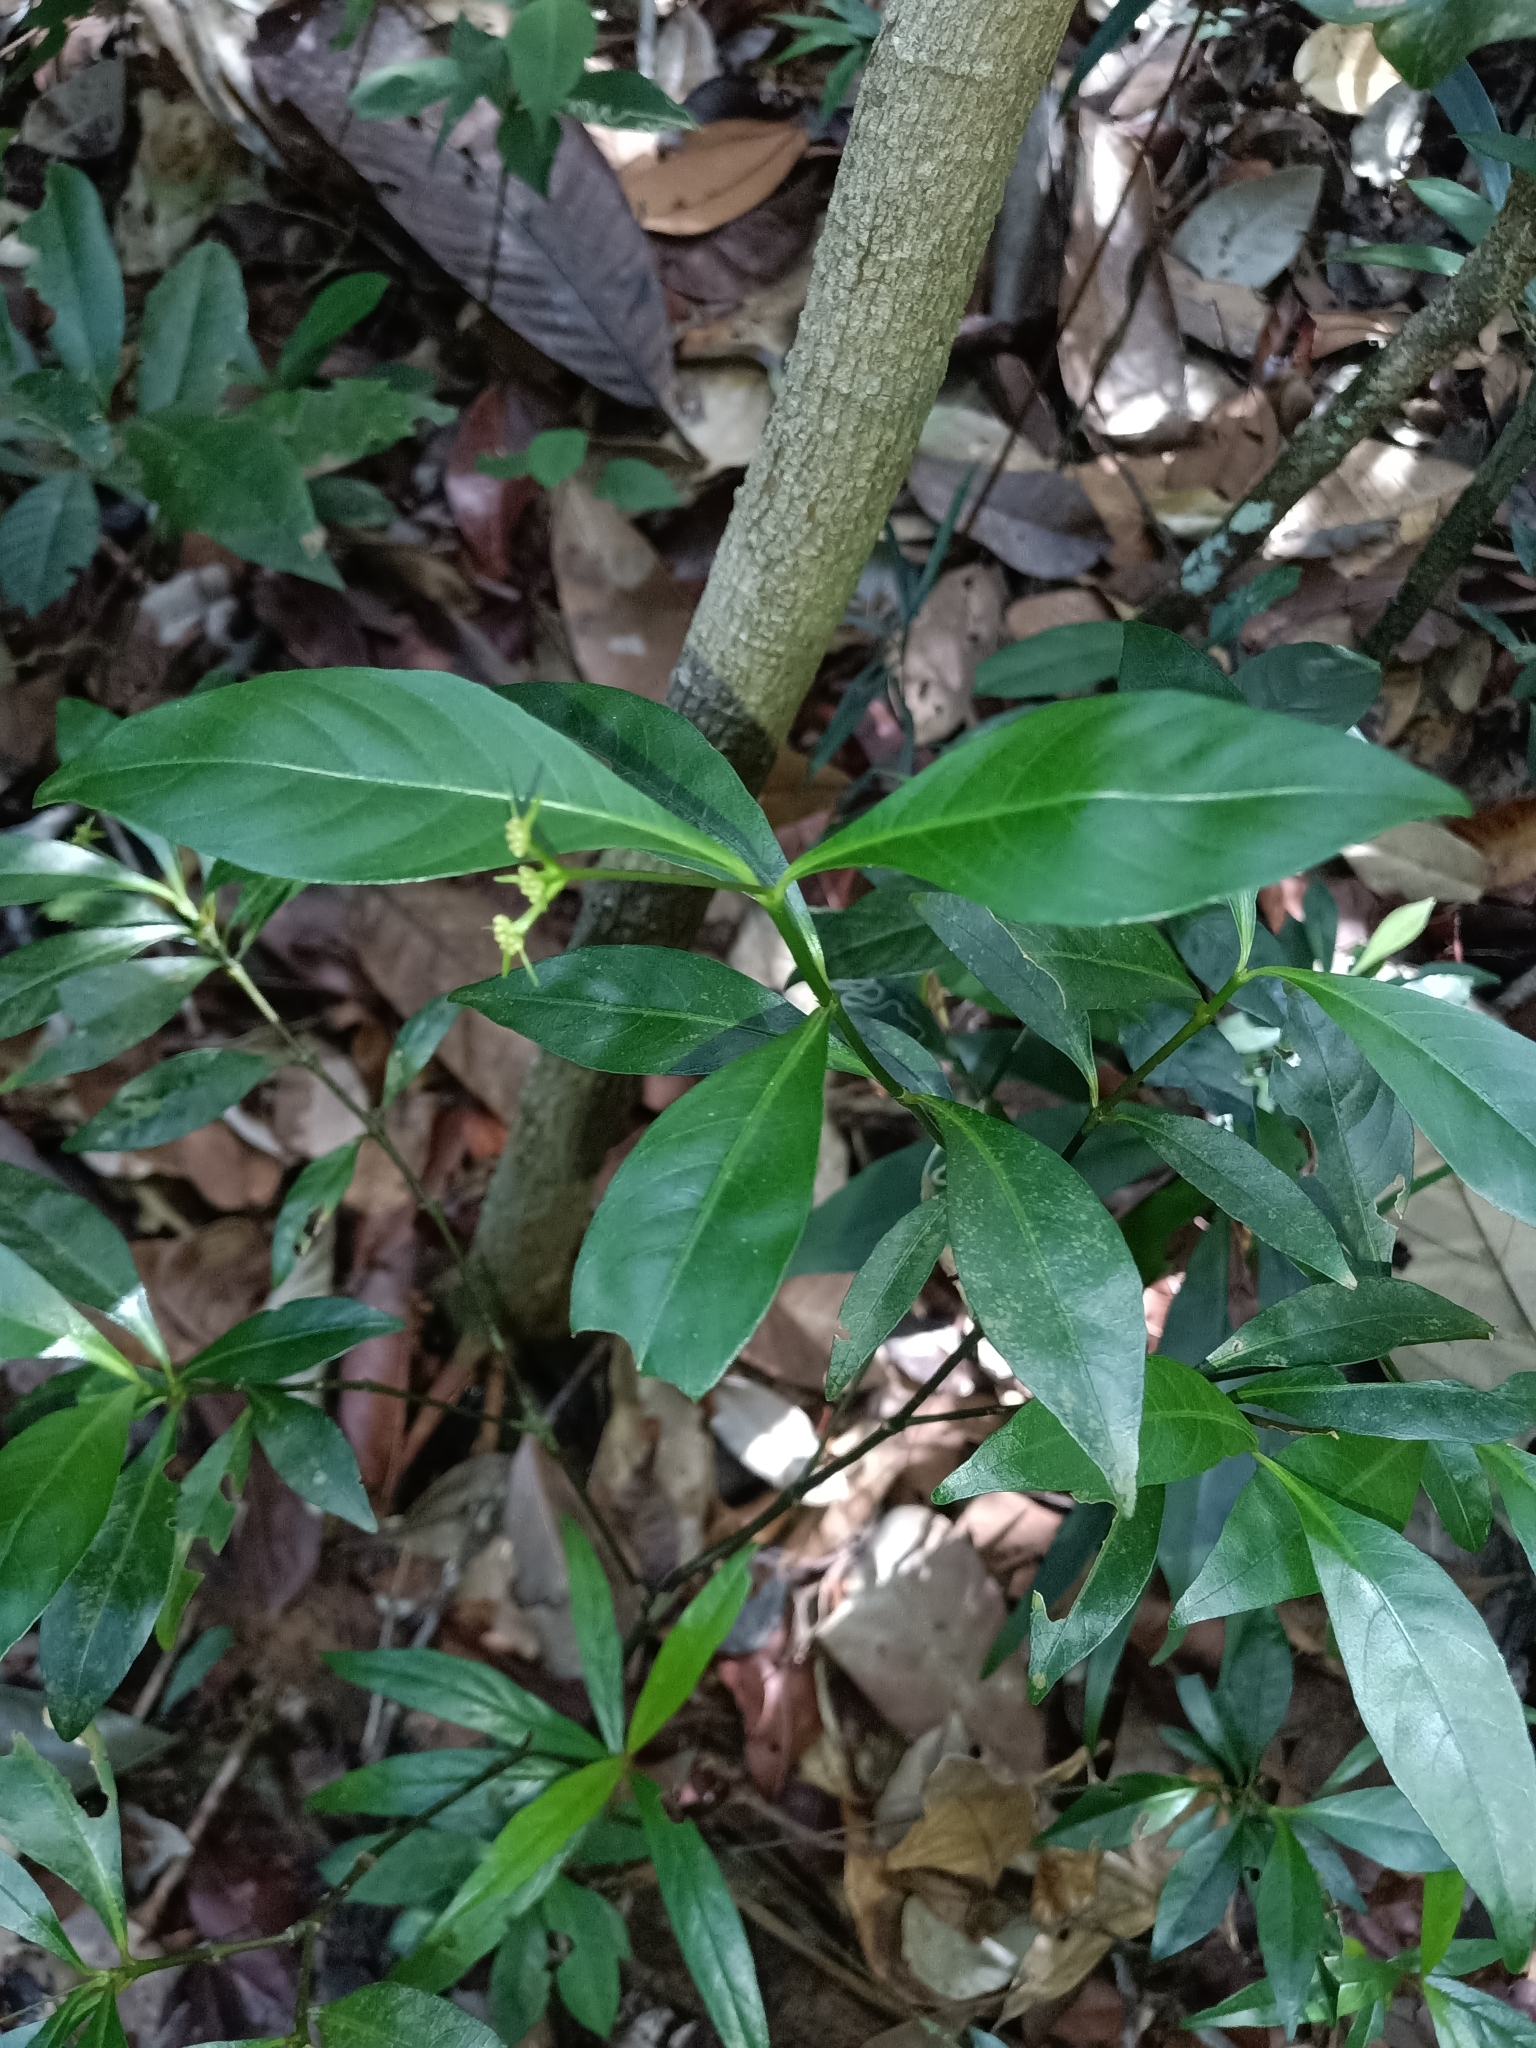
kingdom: Plantae
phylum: Tracheophyta
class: Magnoliopsida
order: Gentianales
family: Rubiaceae
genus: Palicourea
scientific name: Palicourea tenerior
